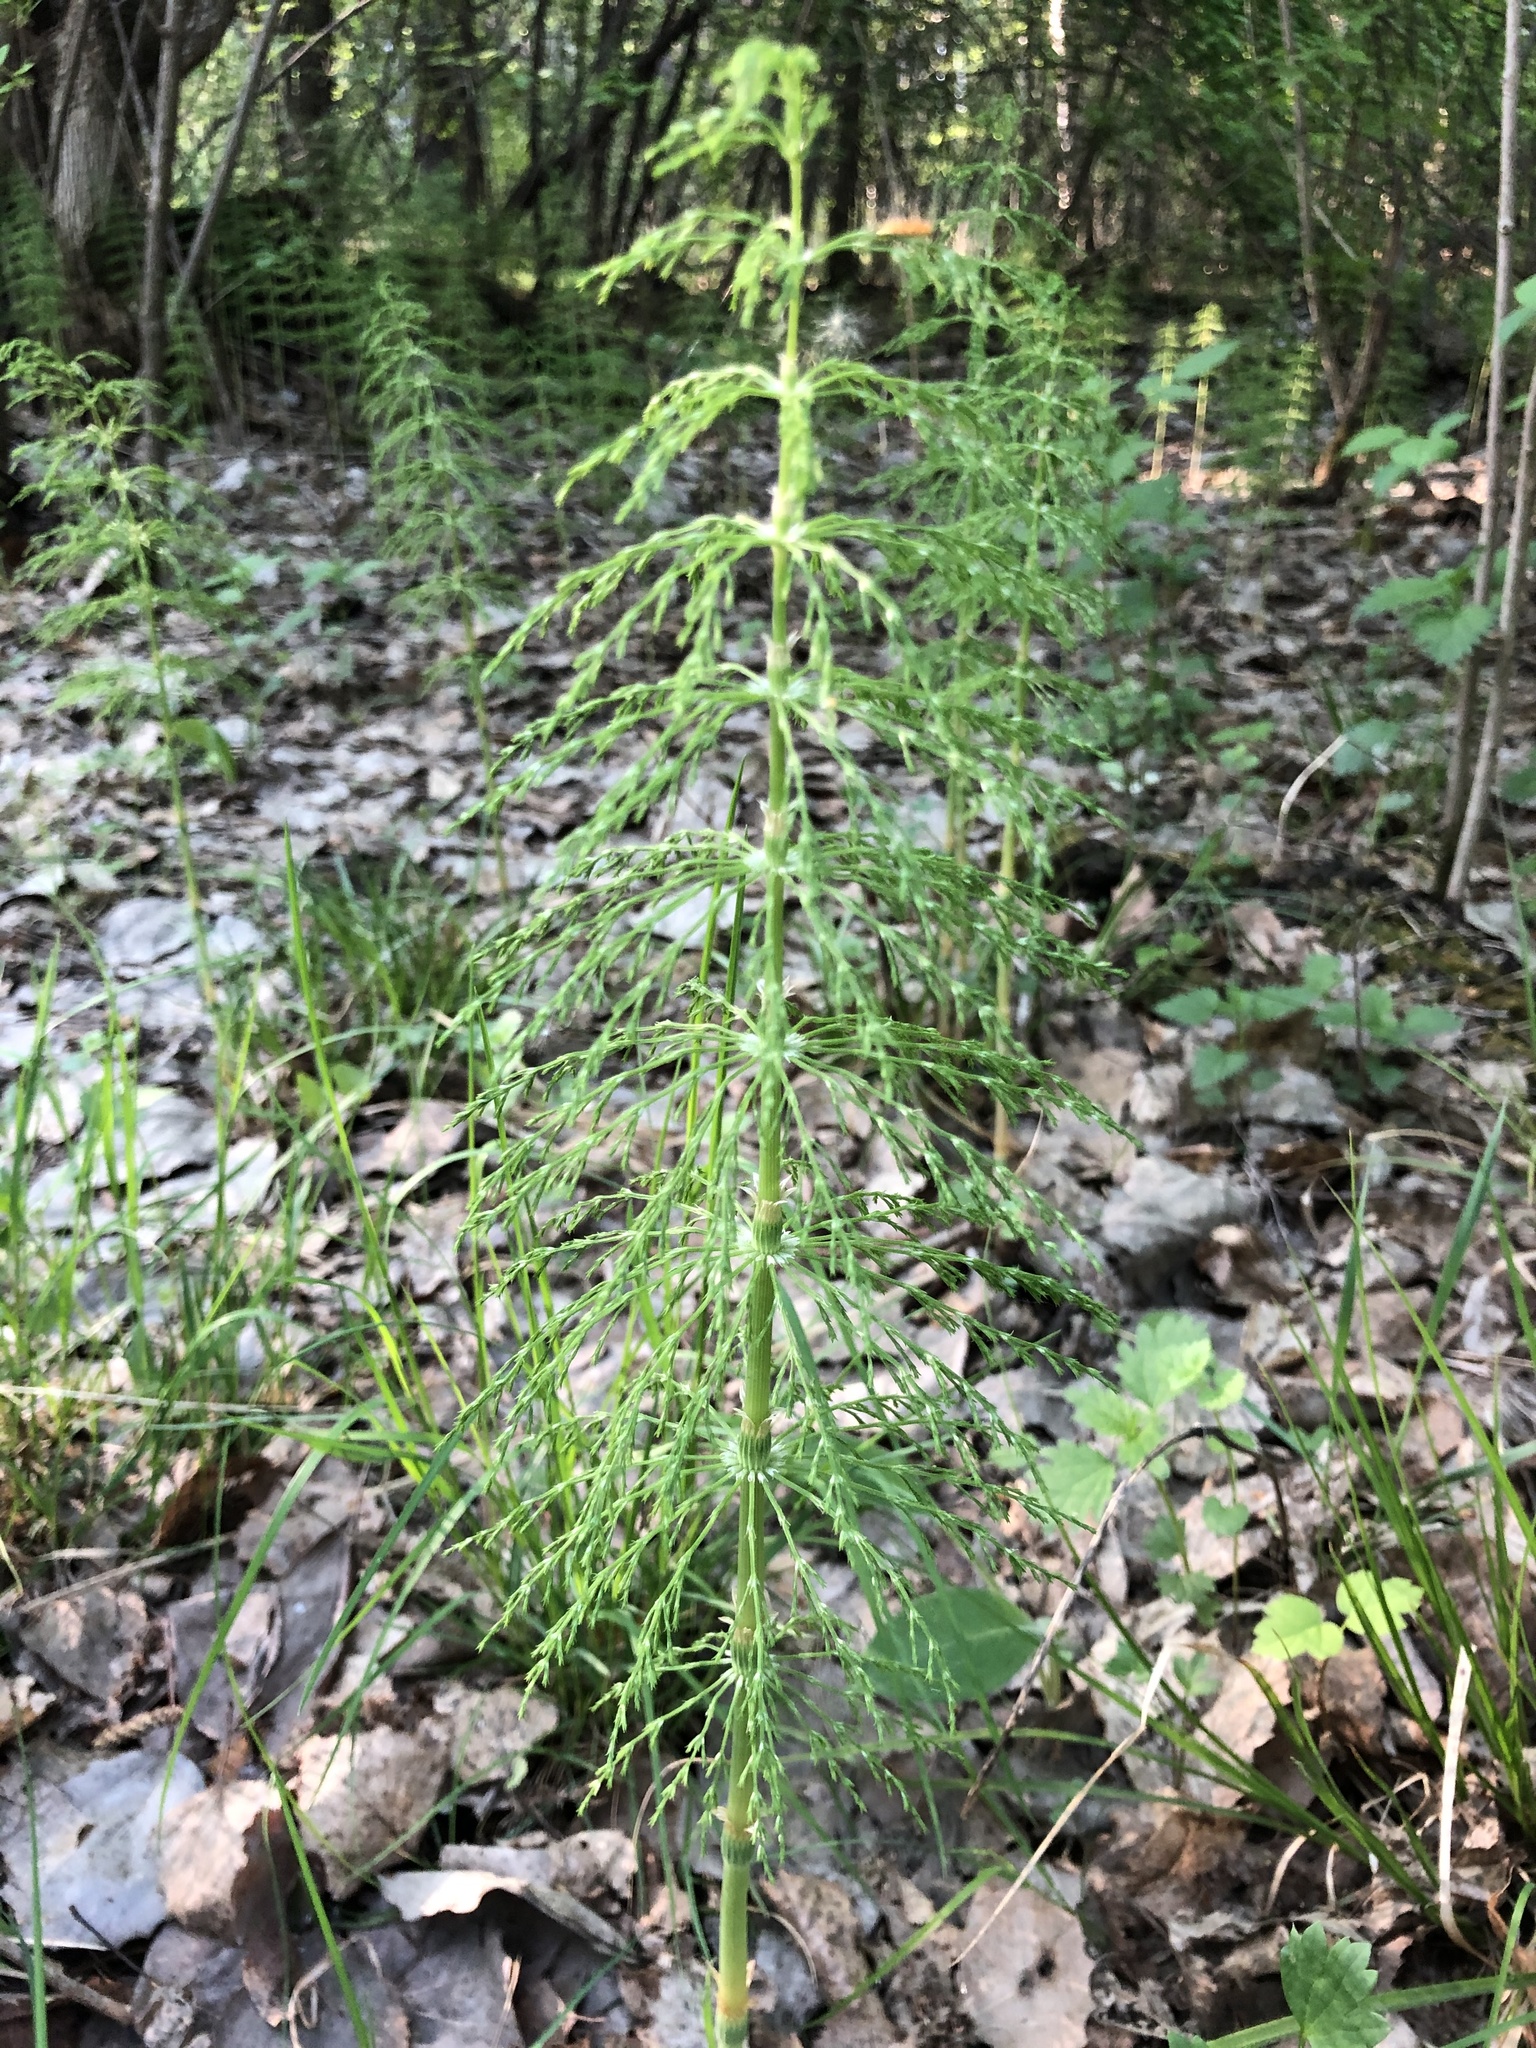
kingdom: Plantae
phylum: Tracheophyta
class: Polypodiopsida
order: Equisetales
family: Equisetaceae
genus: Equisetum
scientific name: Equisetum sylvaticum
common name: Wood horsetail
